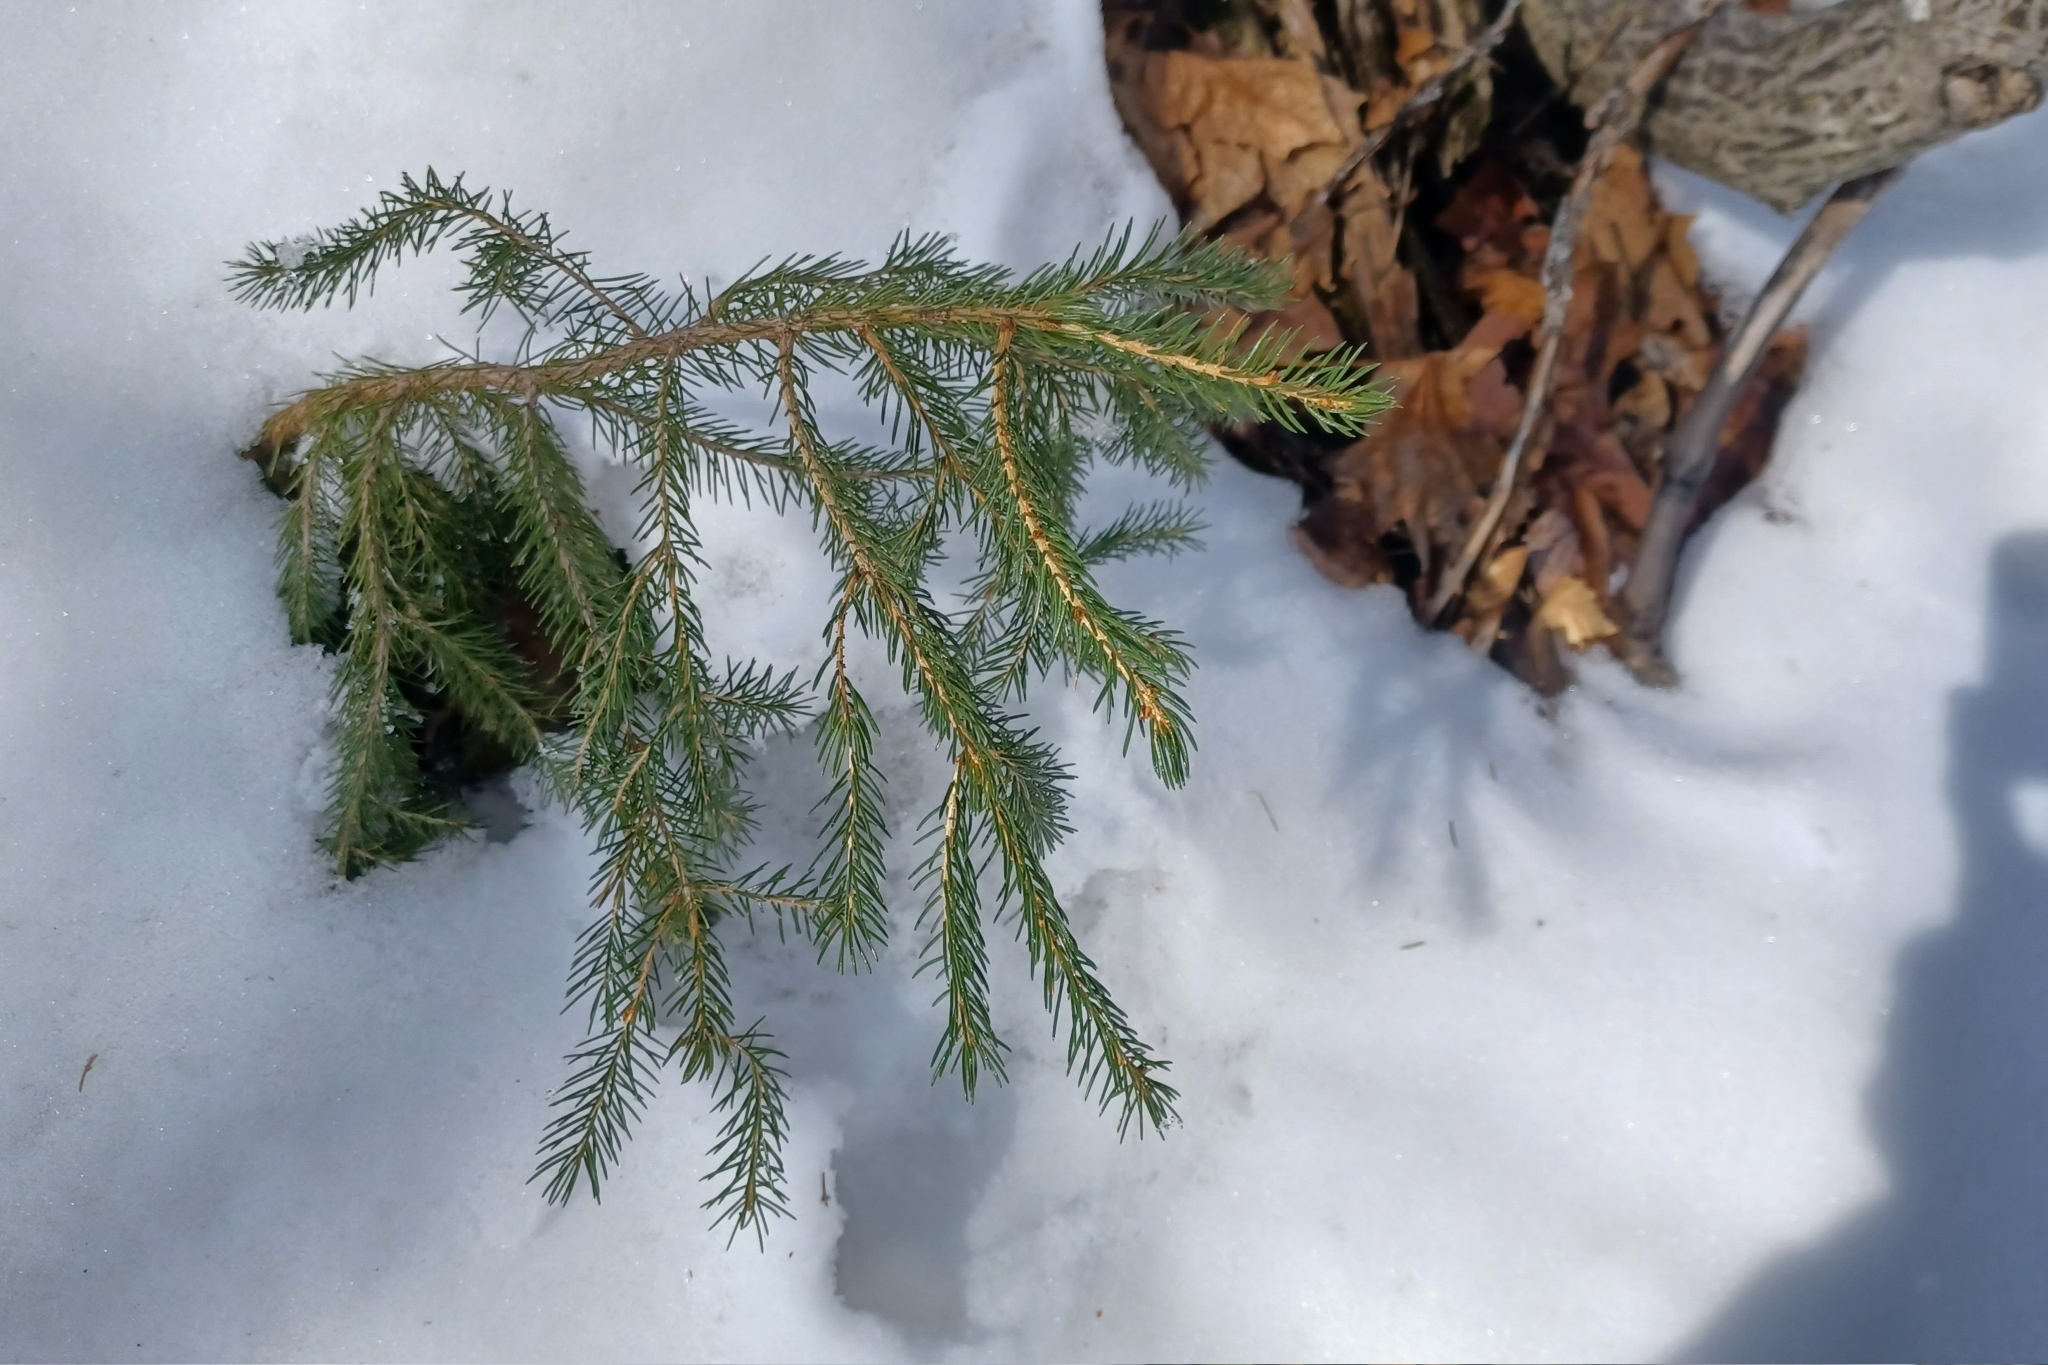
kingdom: Plantae
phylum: Tracheophyta
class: Pinopsida
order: Pinales
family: Pinaceae
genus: Picea
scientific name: Picea rubens
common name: Red spruce
